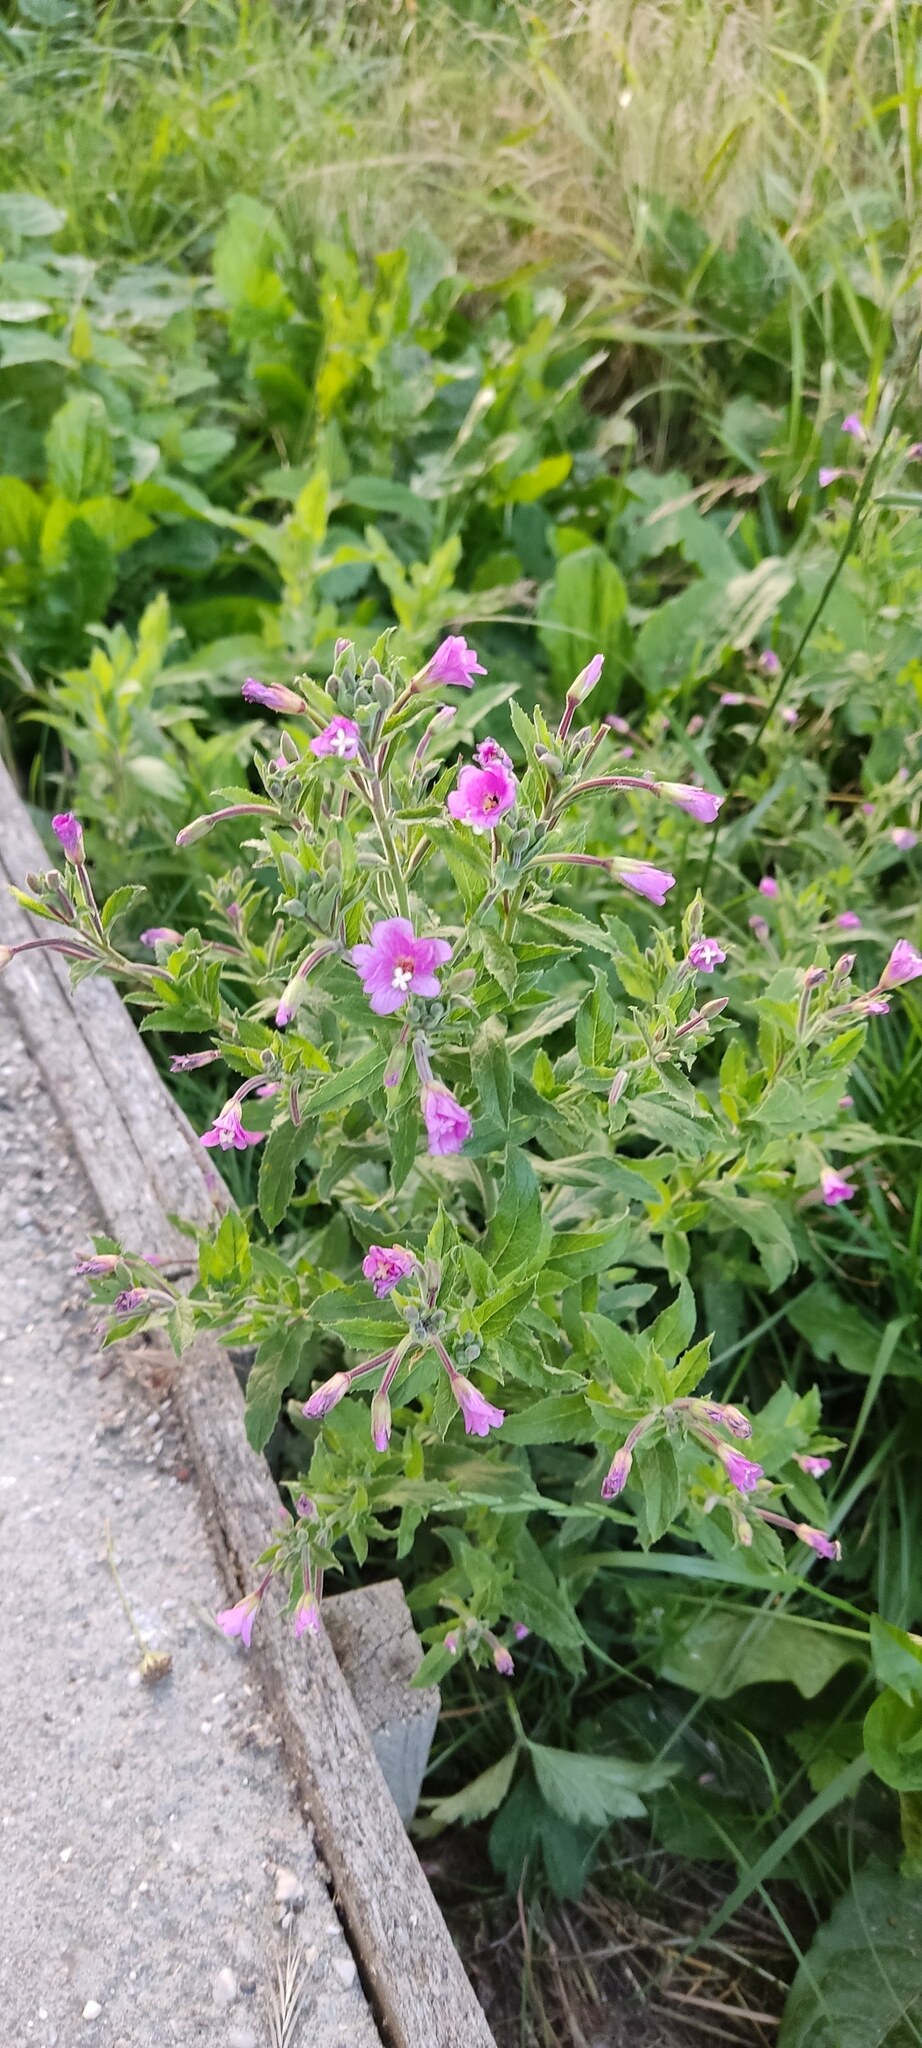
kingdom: Plantae
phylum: Tracheophyta
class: Magnoliopsida
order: Myrtales
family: Onagraceae
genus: Epilobium
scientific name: Epilobium hirsutum
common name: Great willowherb
